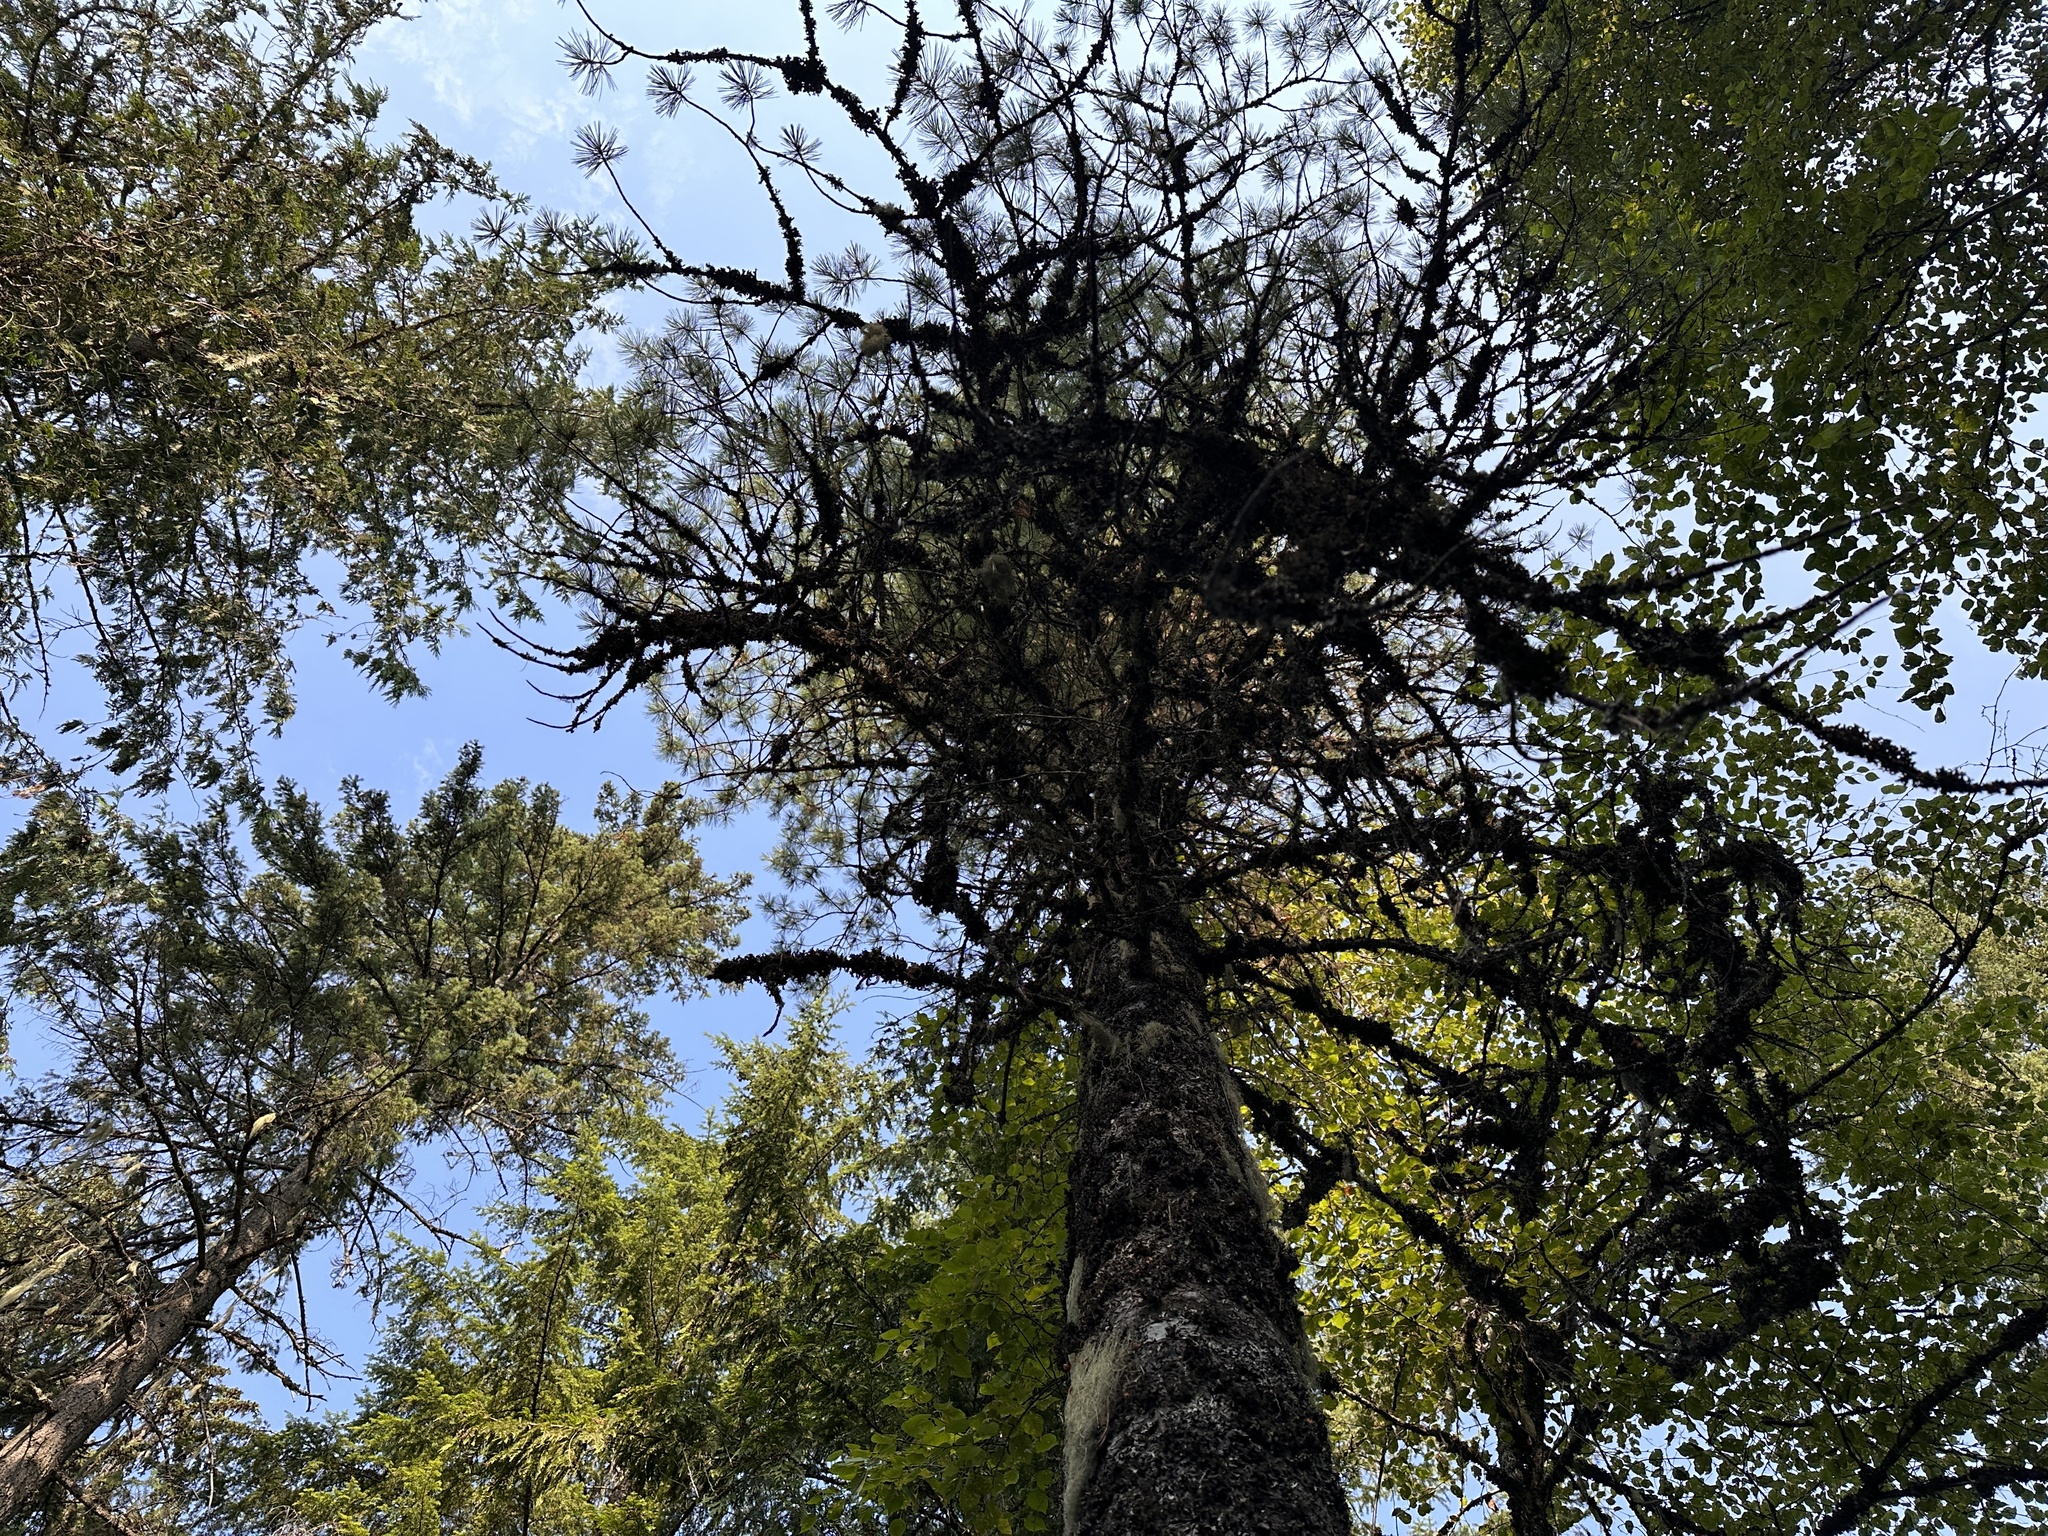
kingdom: Plantae
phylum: Tracheophyta
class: Pinopsida
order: Pinales
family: Pinaceae
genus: Pinus
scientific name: Pinus monticola
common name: Western white pine
